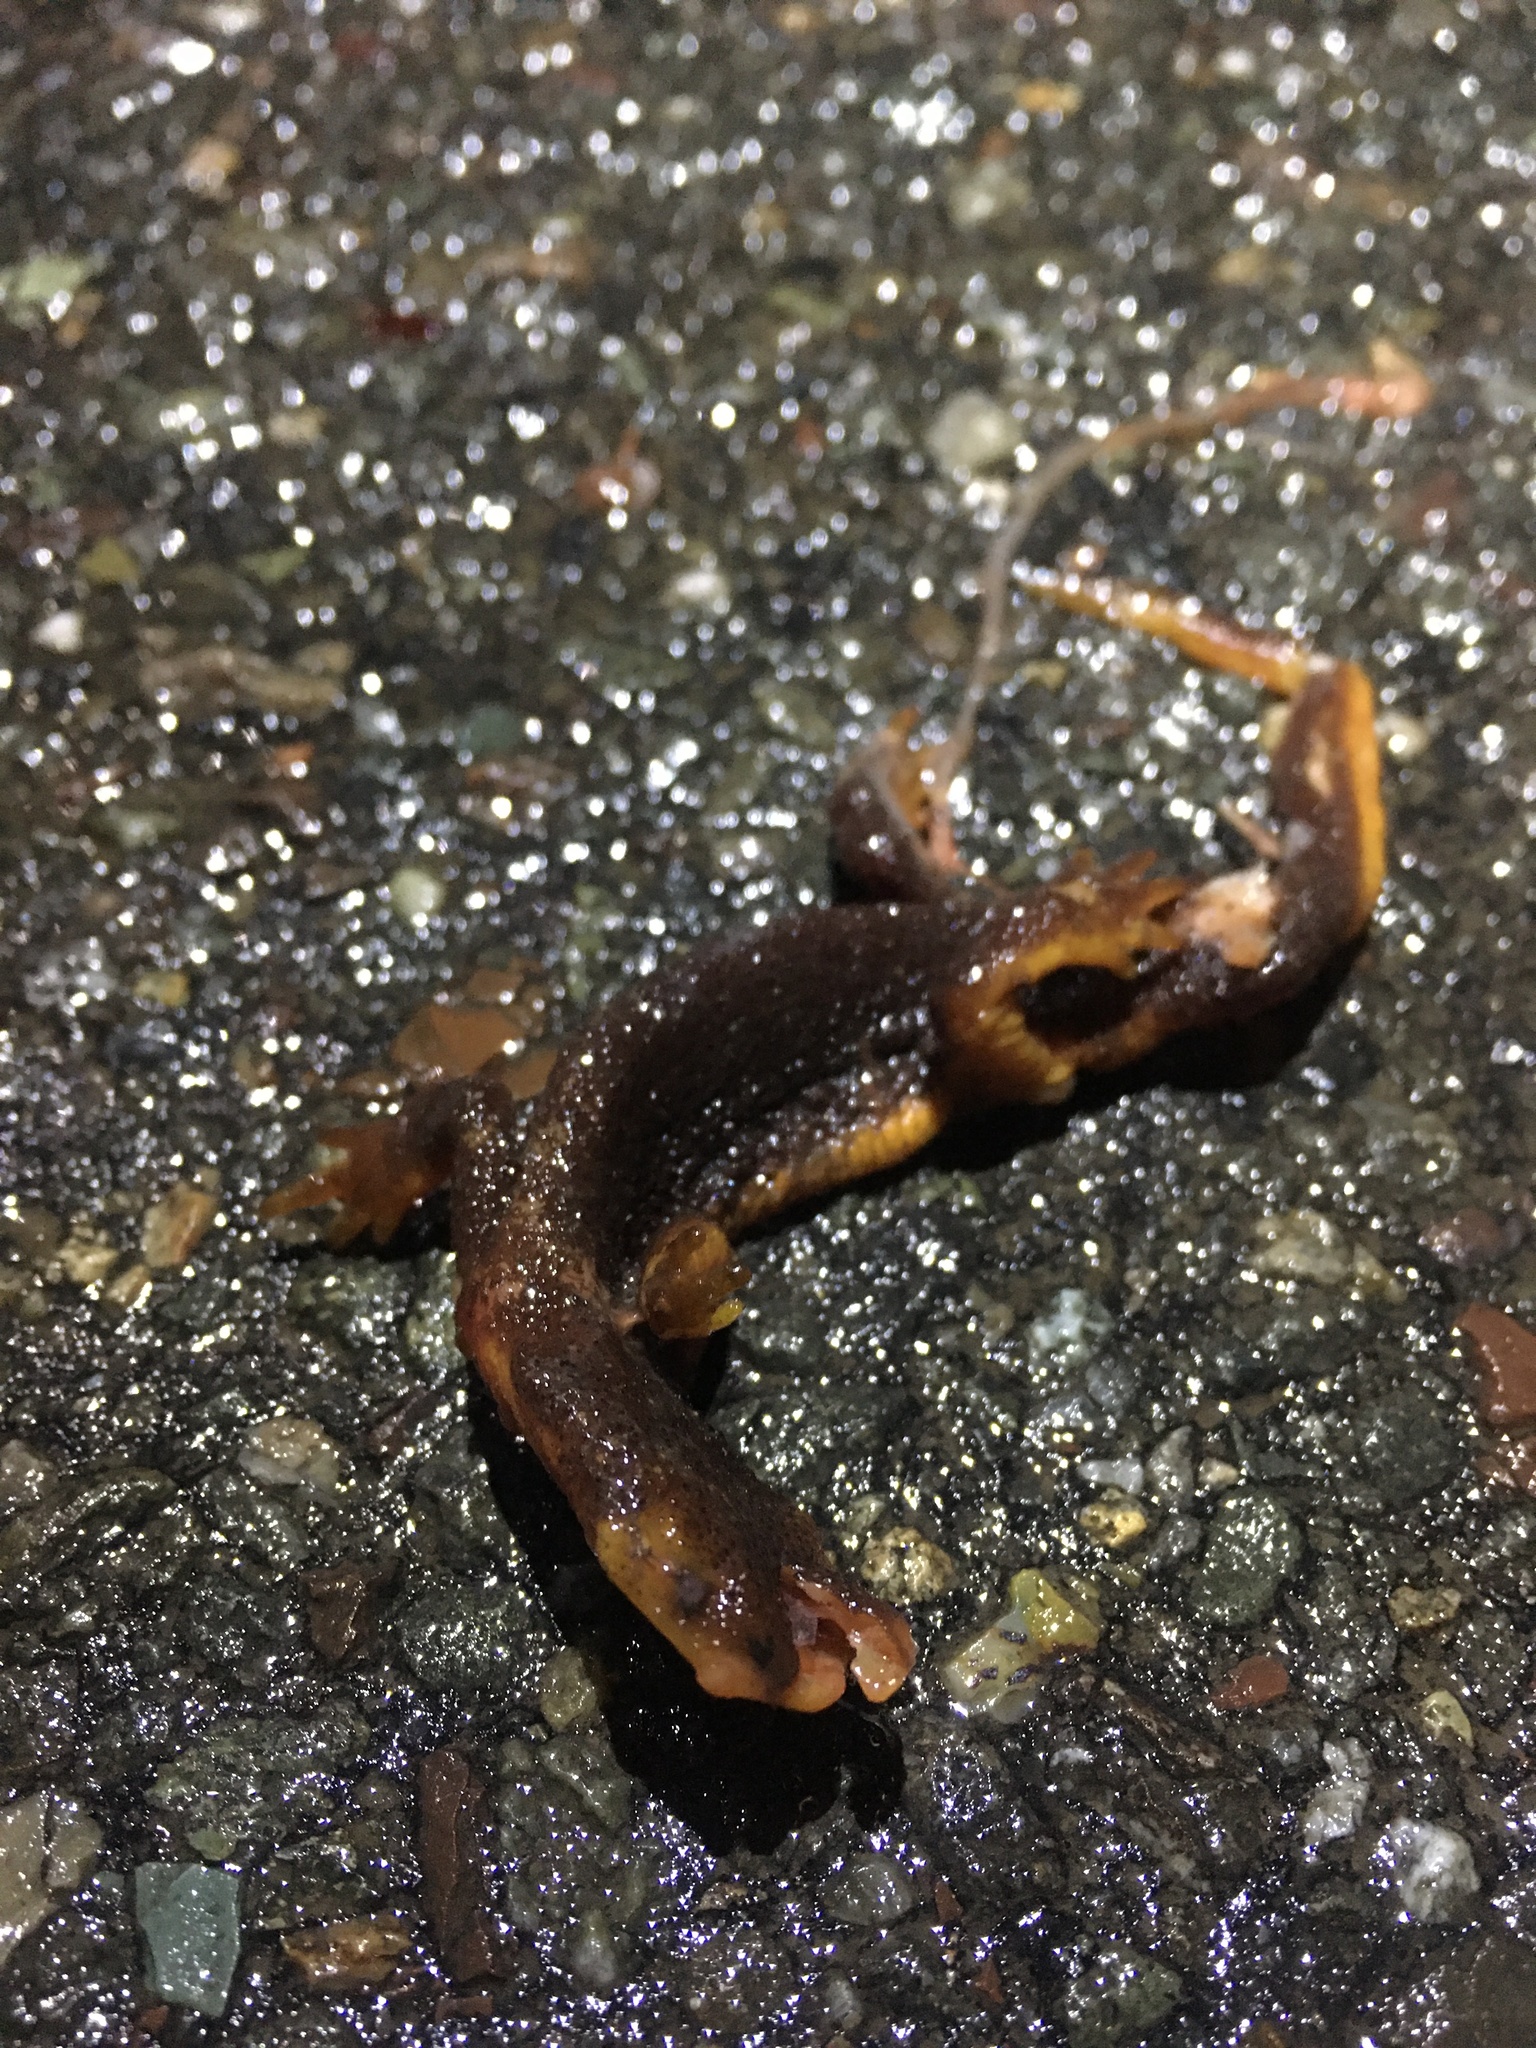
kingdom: Animalia
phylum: Chordata
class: Amphibia
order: Caudata
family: Salamandridae
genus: Taricha
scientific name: Taricha
